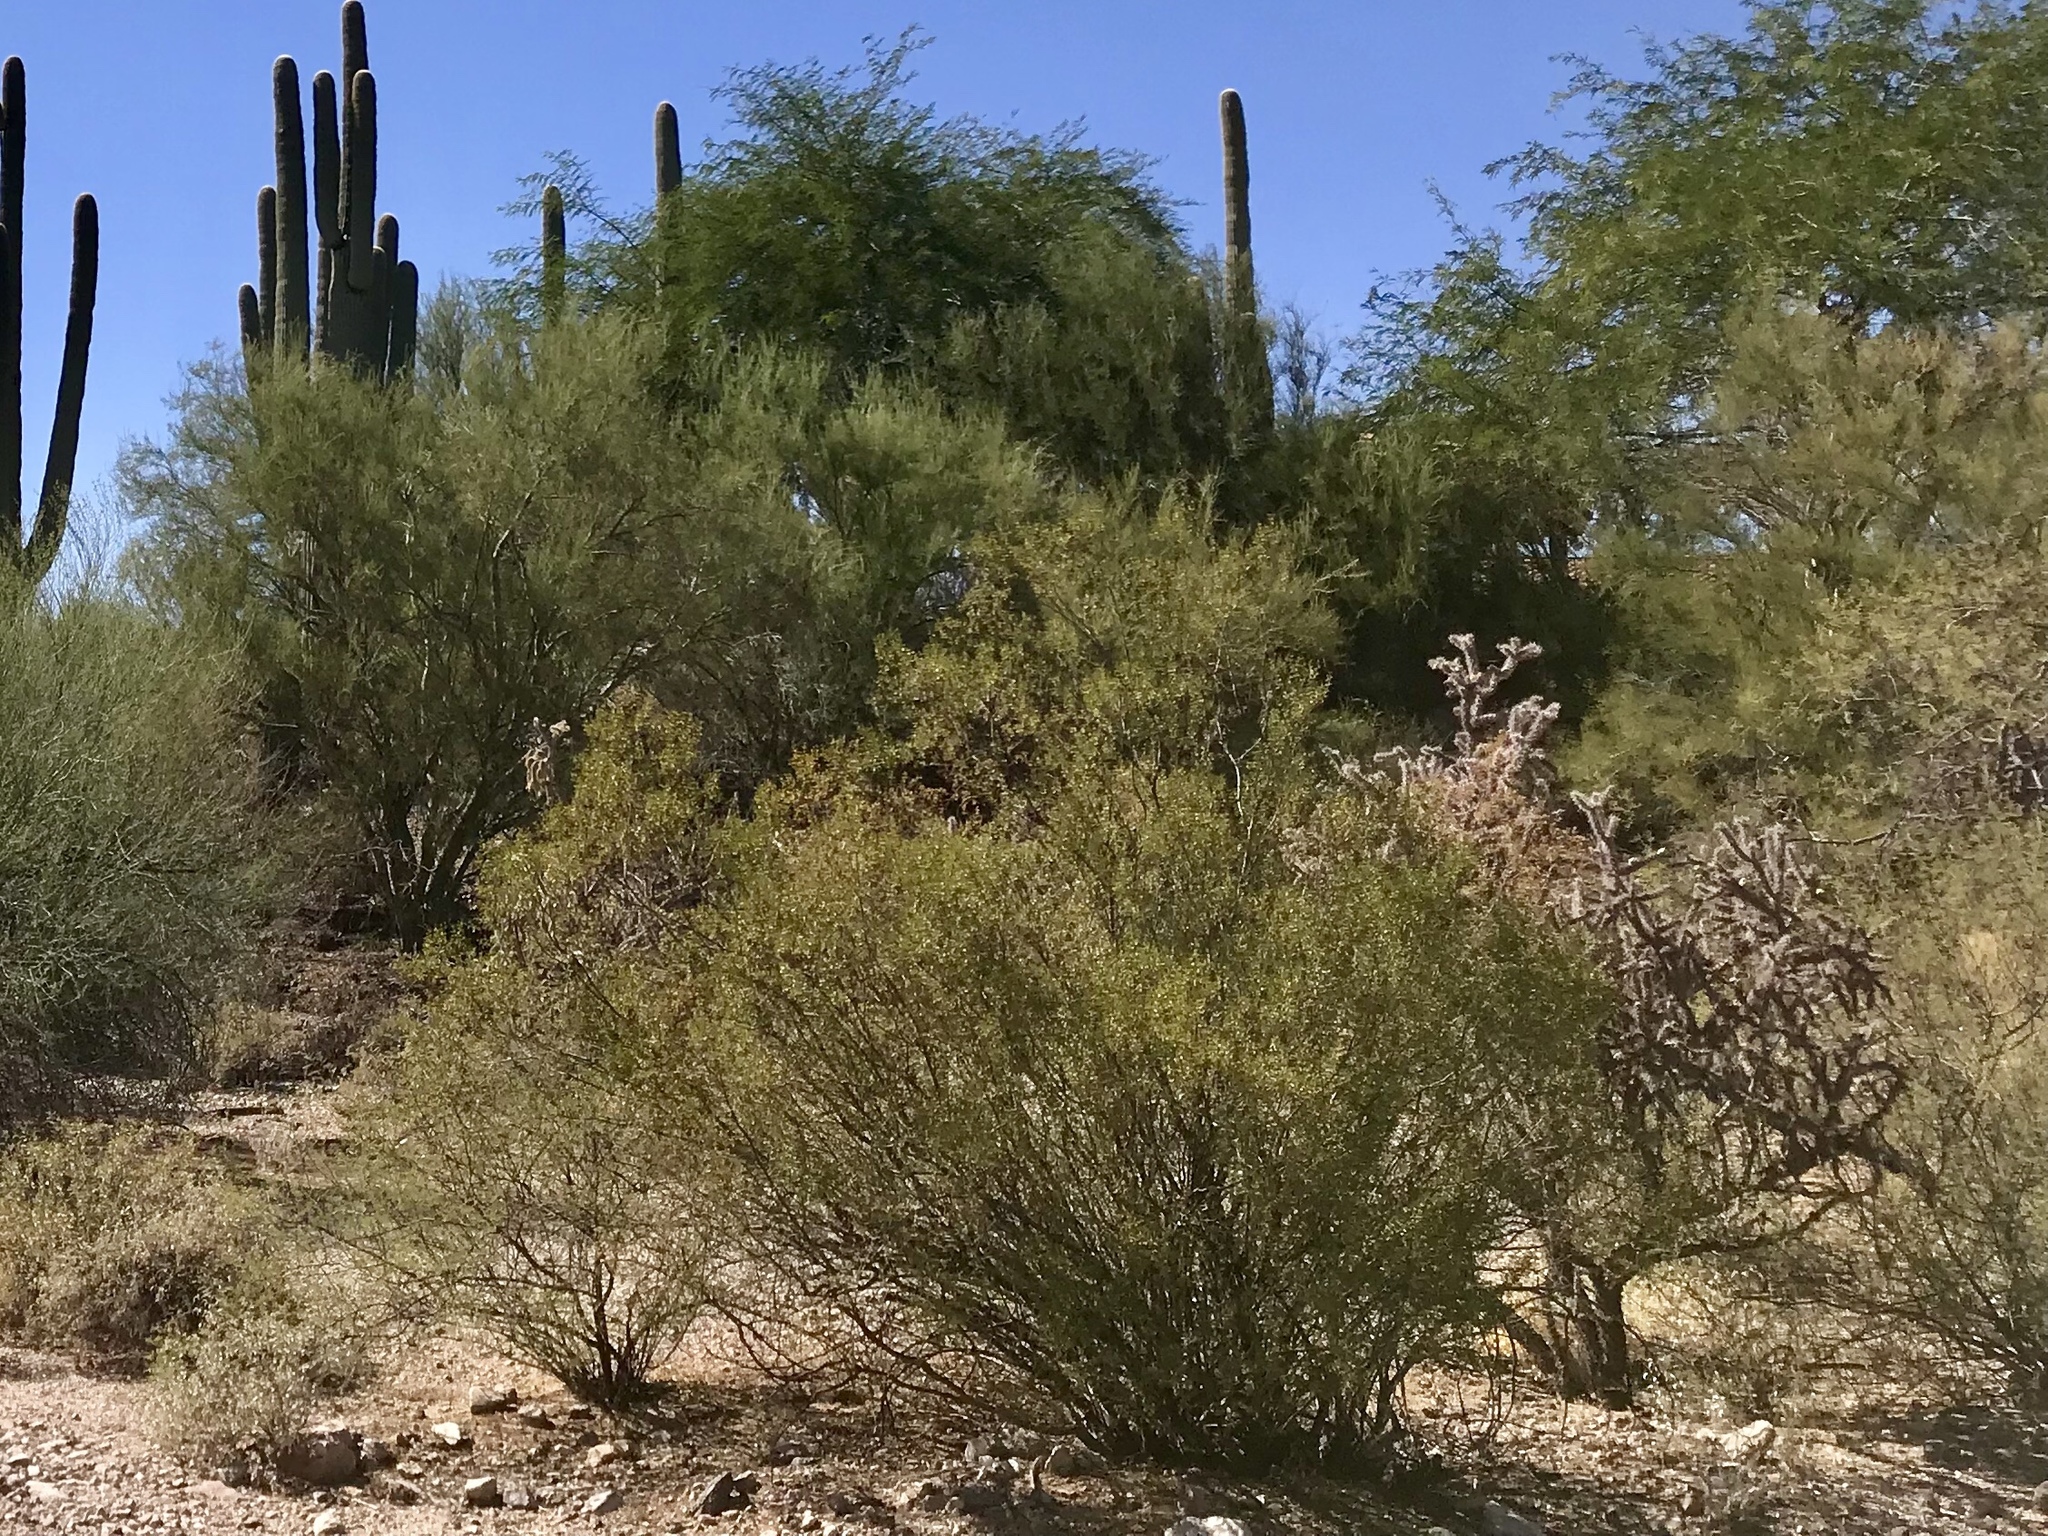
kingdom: Plantae
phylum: Tracheophyta
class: Magnoliopsida
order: Zygophyllales
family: Zygophyllaceae
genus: Larrea
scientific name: Larrea tridentata
